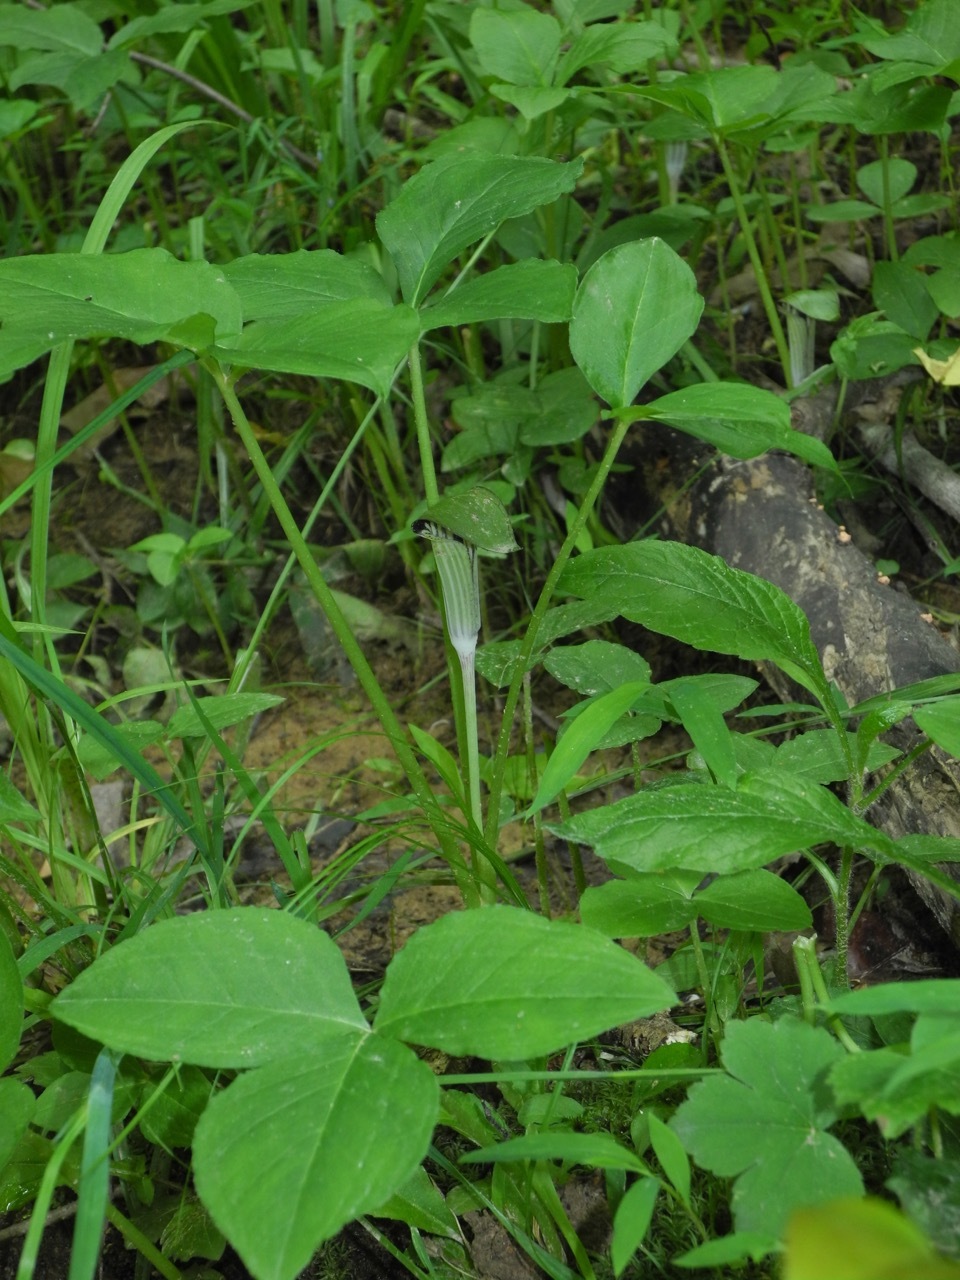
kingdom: Plantae
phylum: Tracheophyta
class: Liliopsida
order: Alismatales
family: Araceae
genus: Arisaema
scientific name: Arisaema triphyllum
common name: Jack-in-the-pulpit
